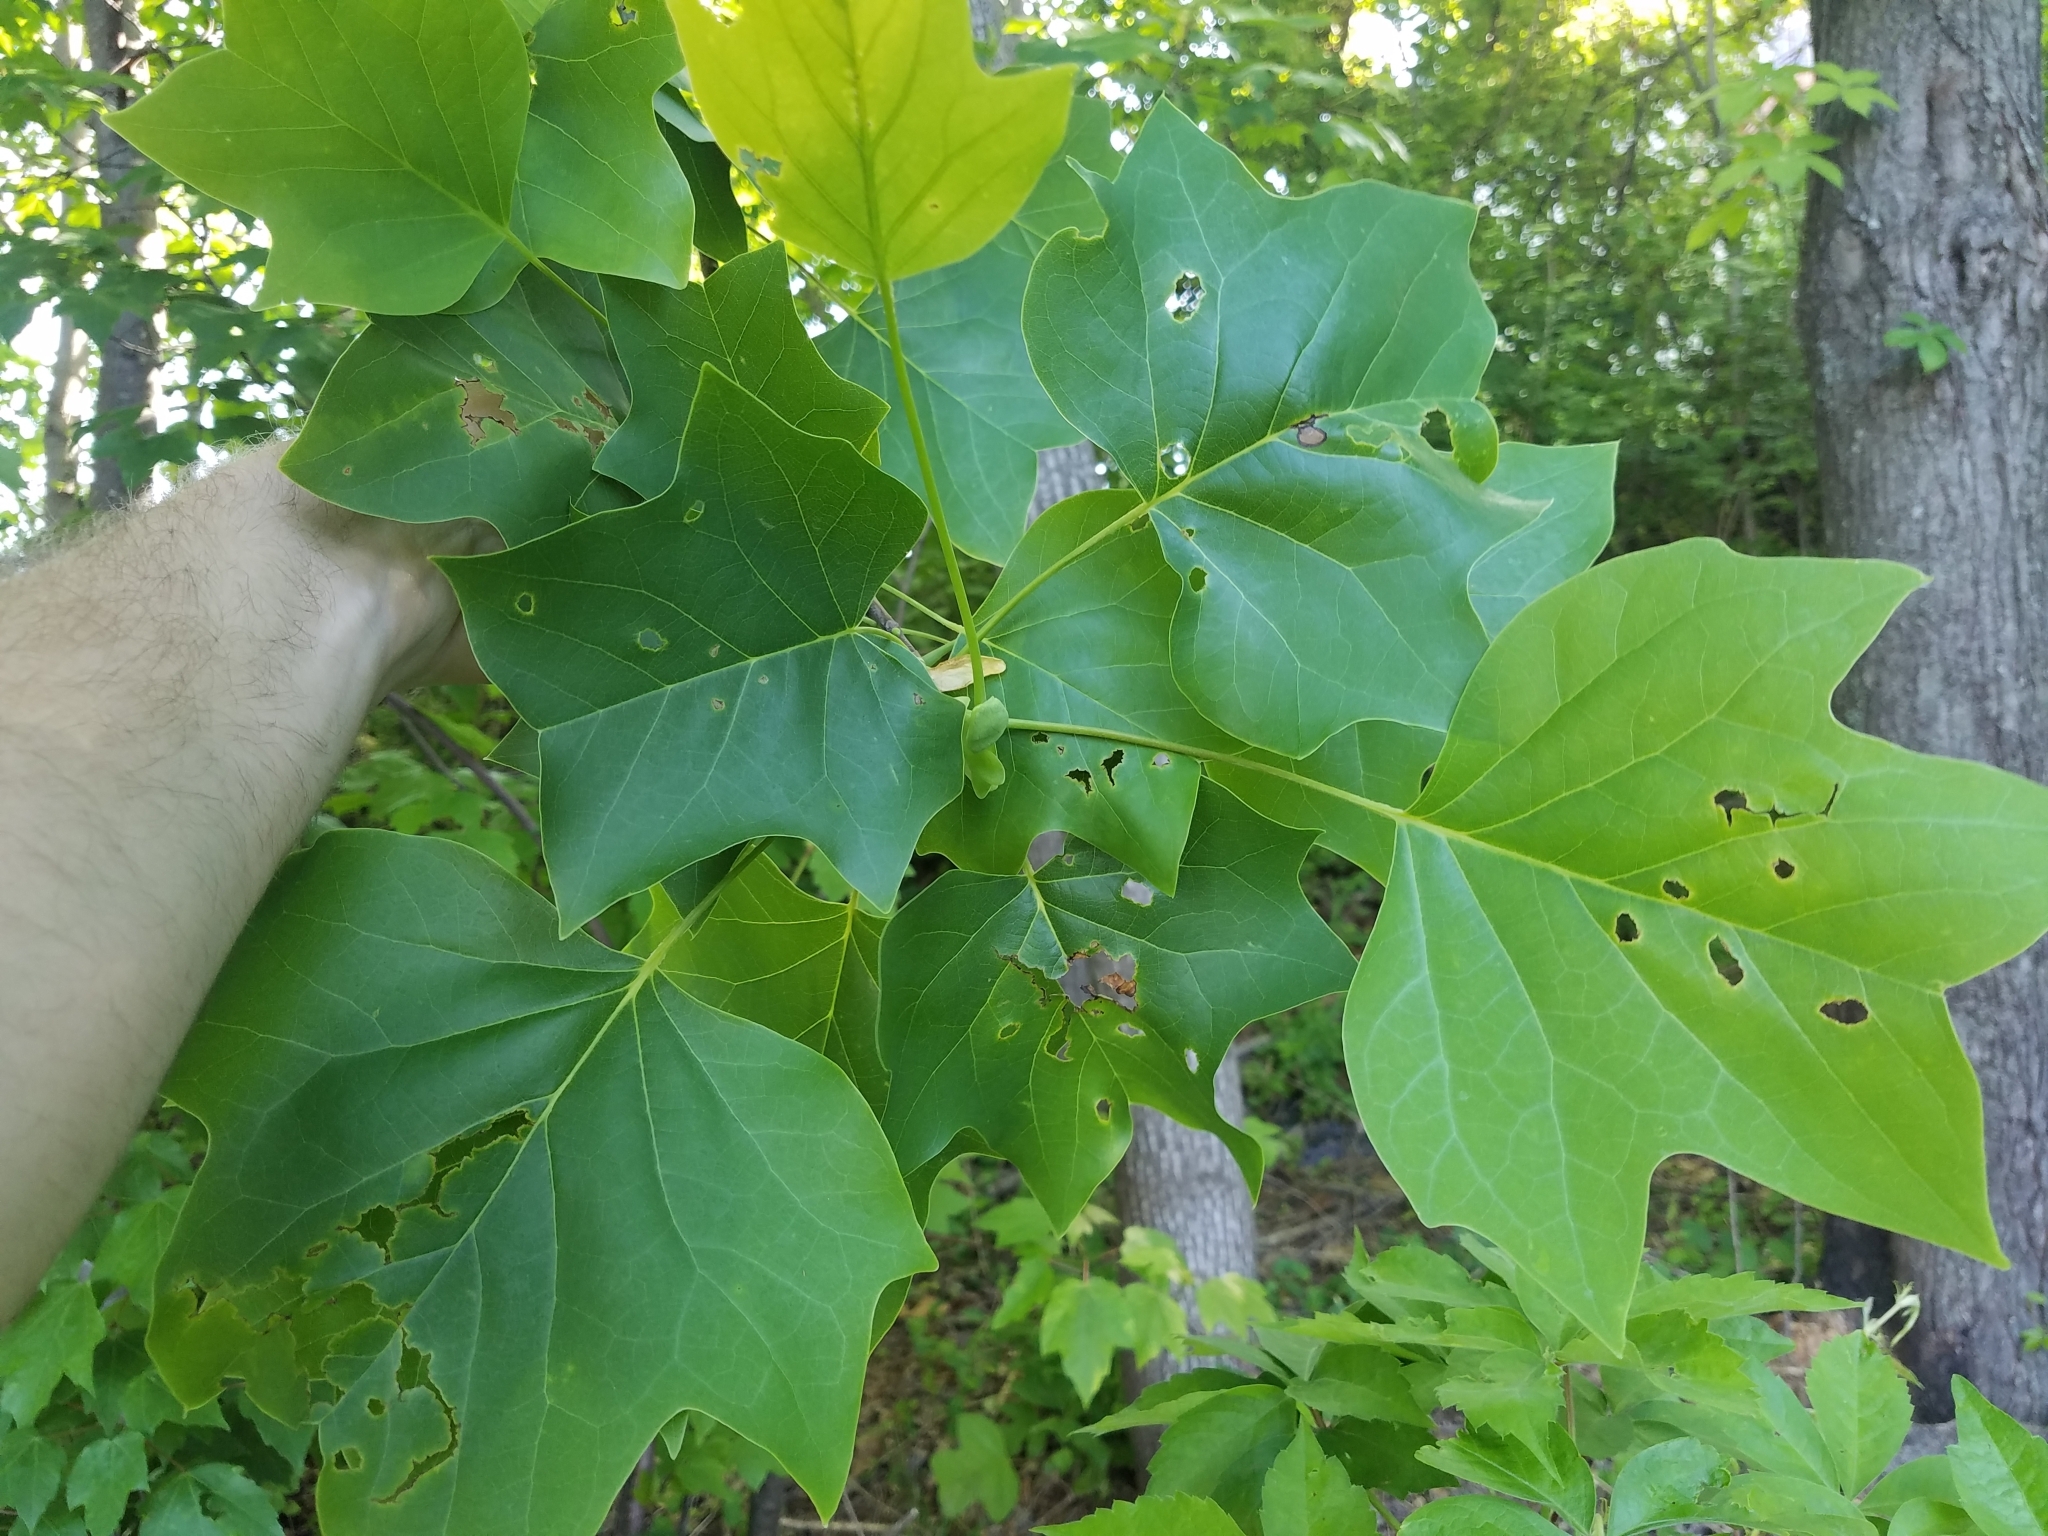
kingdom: Plantae
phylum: Tracheophyta
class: Magnoliopsida
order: Magnoliales
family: Magnoliaceae
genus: Liriodendron
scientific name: Liriodendron tulipifera
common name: Tulip tree
